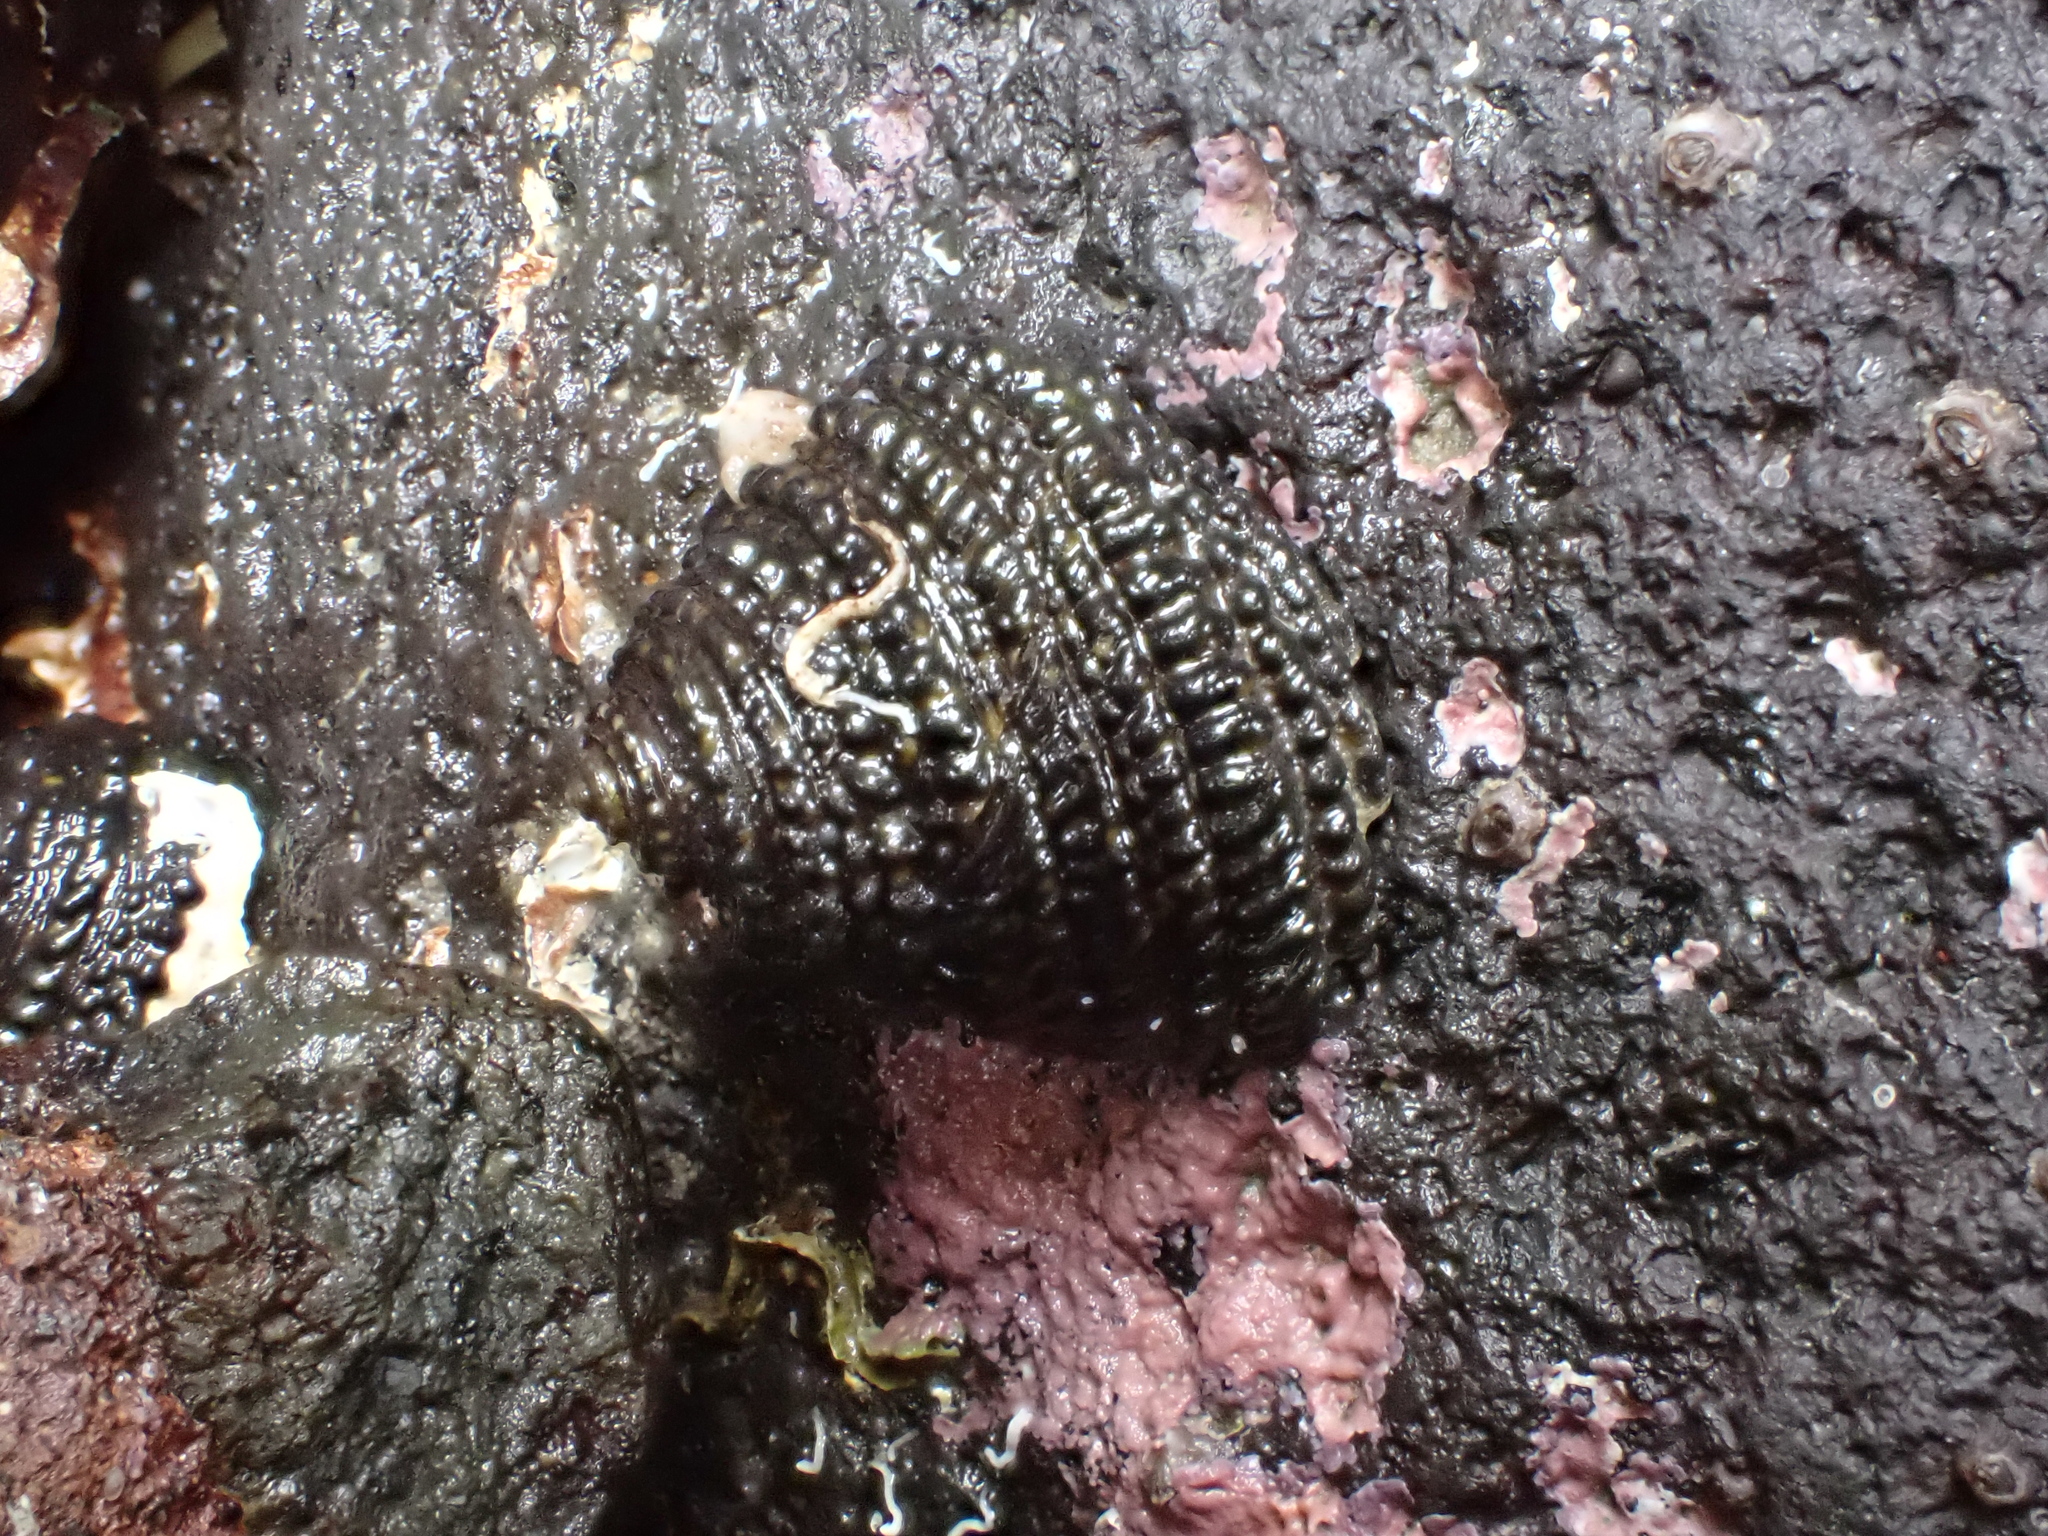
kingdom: Animalia
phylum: Mollusca
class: Gastropoda
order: Trochida
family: Trochidae
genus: Diloma
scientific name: Diloma bicanaliculatum
